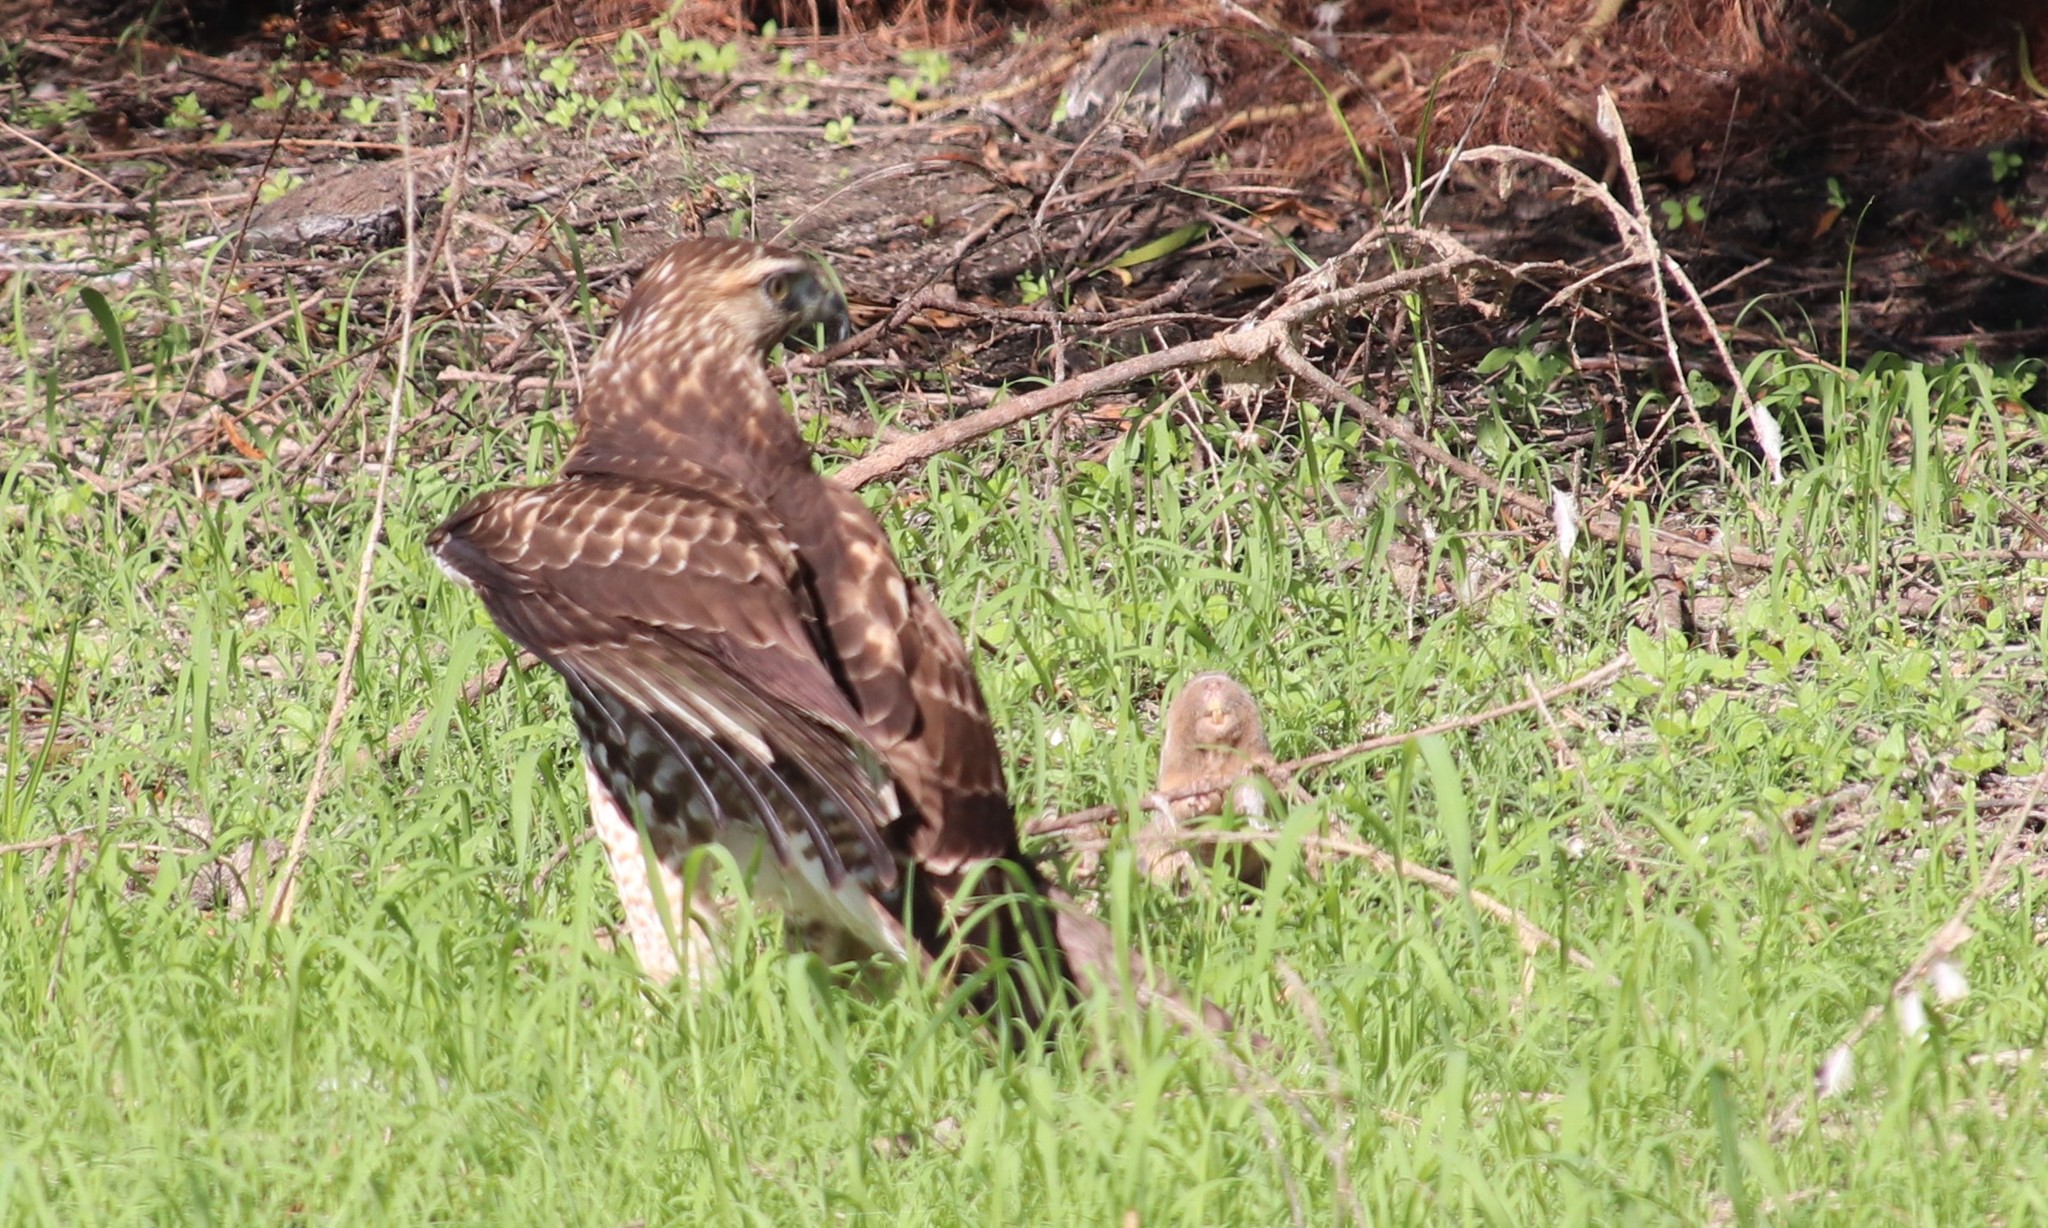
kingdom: Animalia
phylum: Chordata
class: Aves
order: Accipitriformes
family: Accipitridae
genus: Buteo
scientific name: Buteo jamaicensis
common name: Red-tailed hawk
